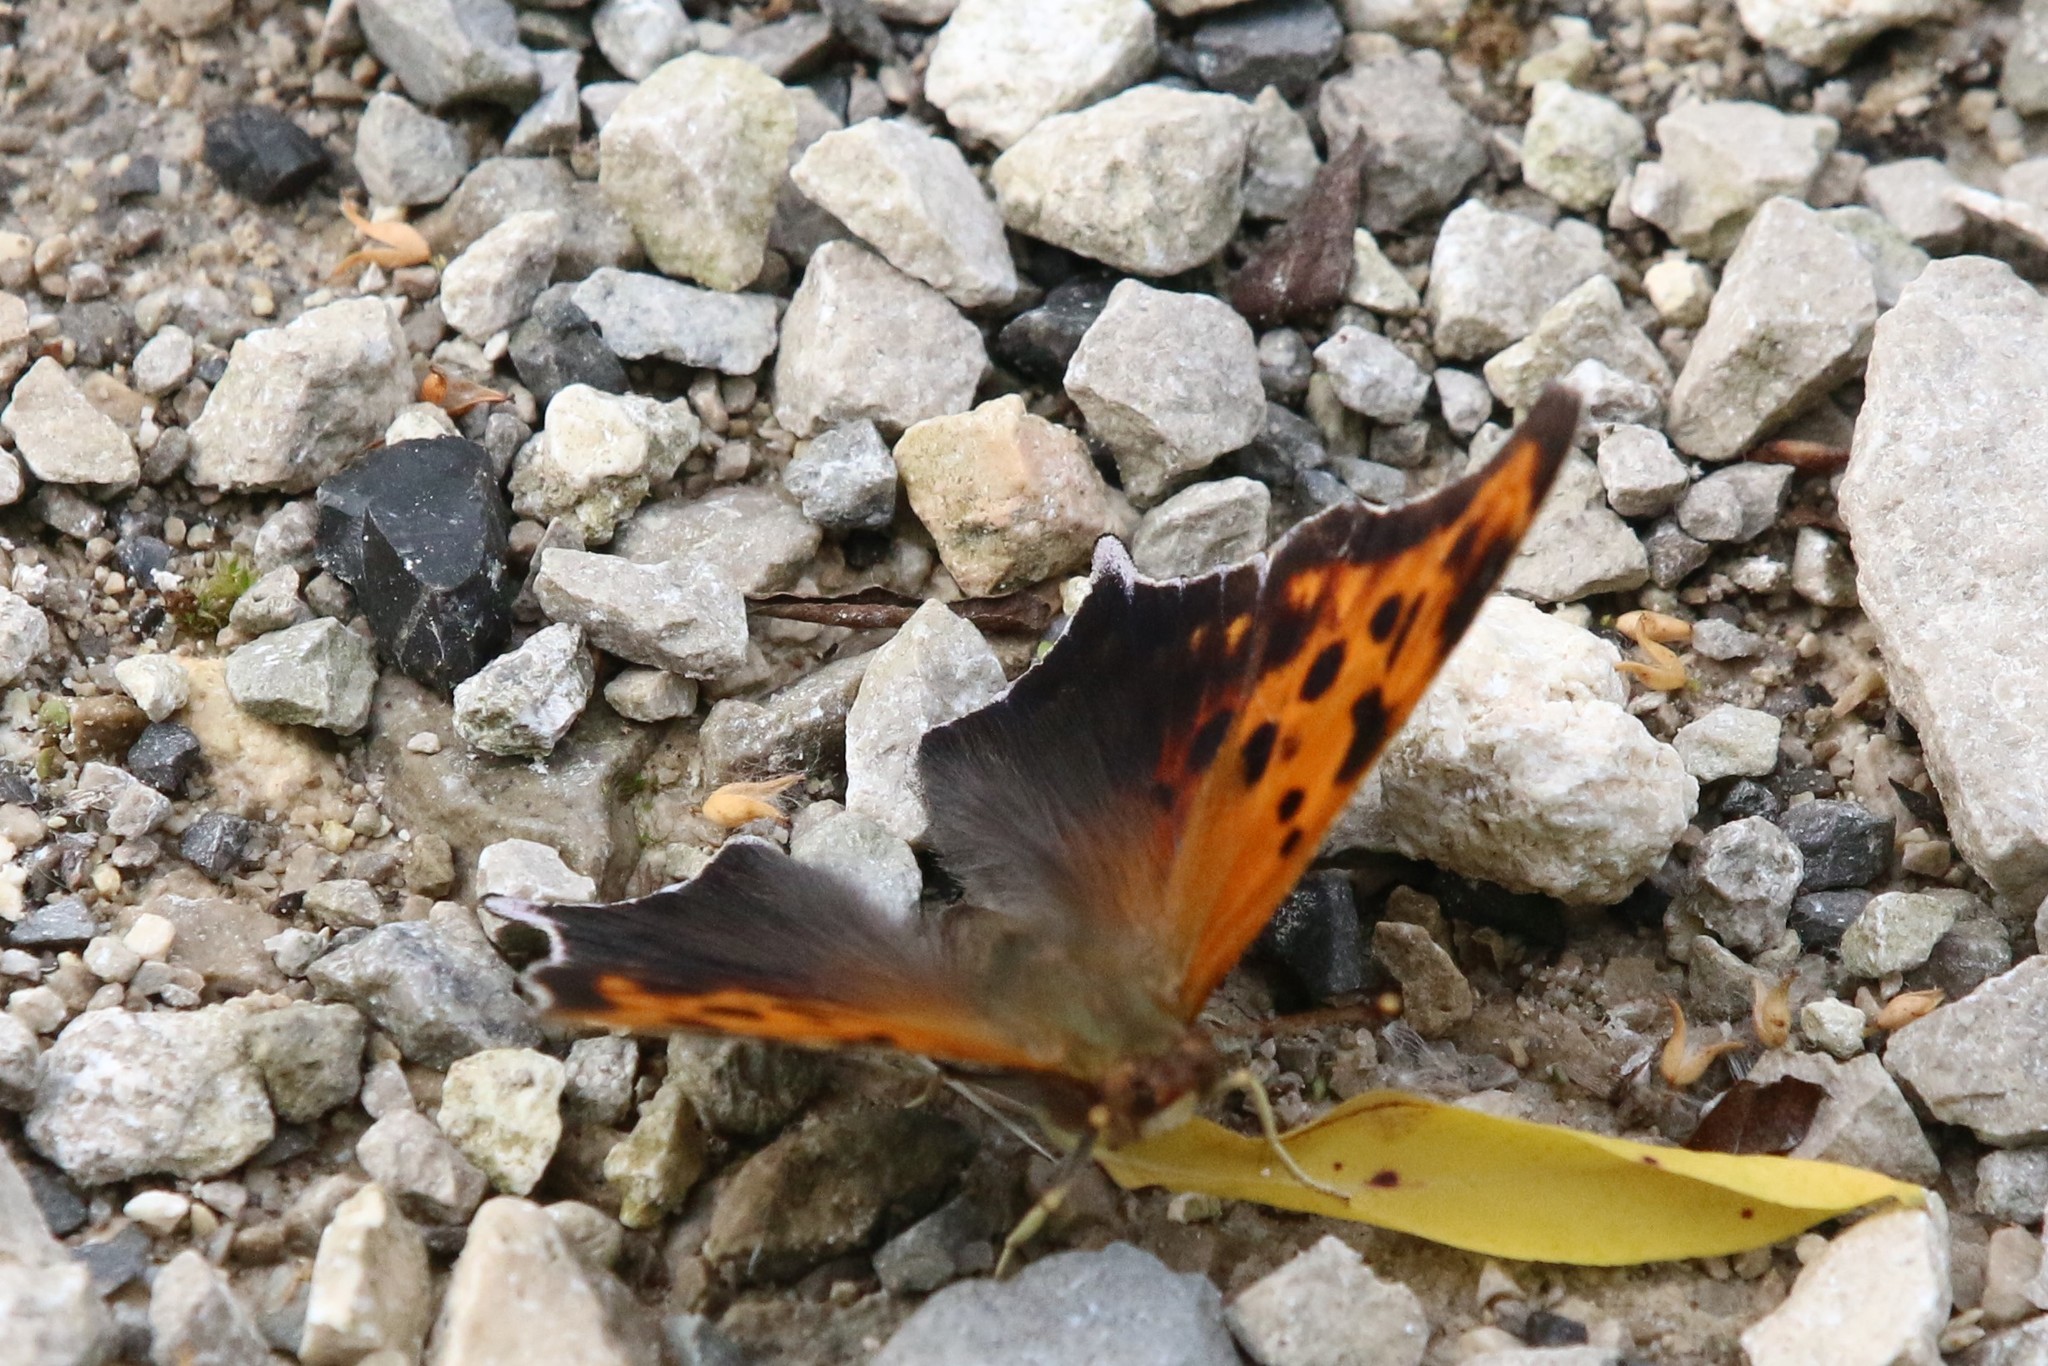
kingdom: Animalia
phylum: Arthropoda
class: Insecta
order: Lepidoptera
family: Nymphalidae
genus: Polygonia
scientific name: Polygonia interrogationis
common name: Question mark
